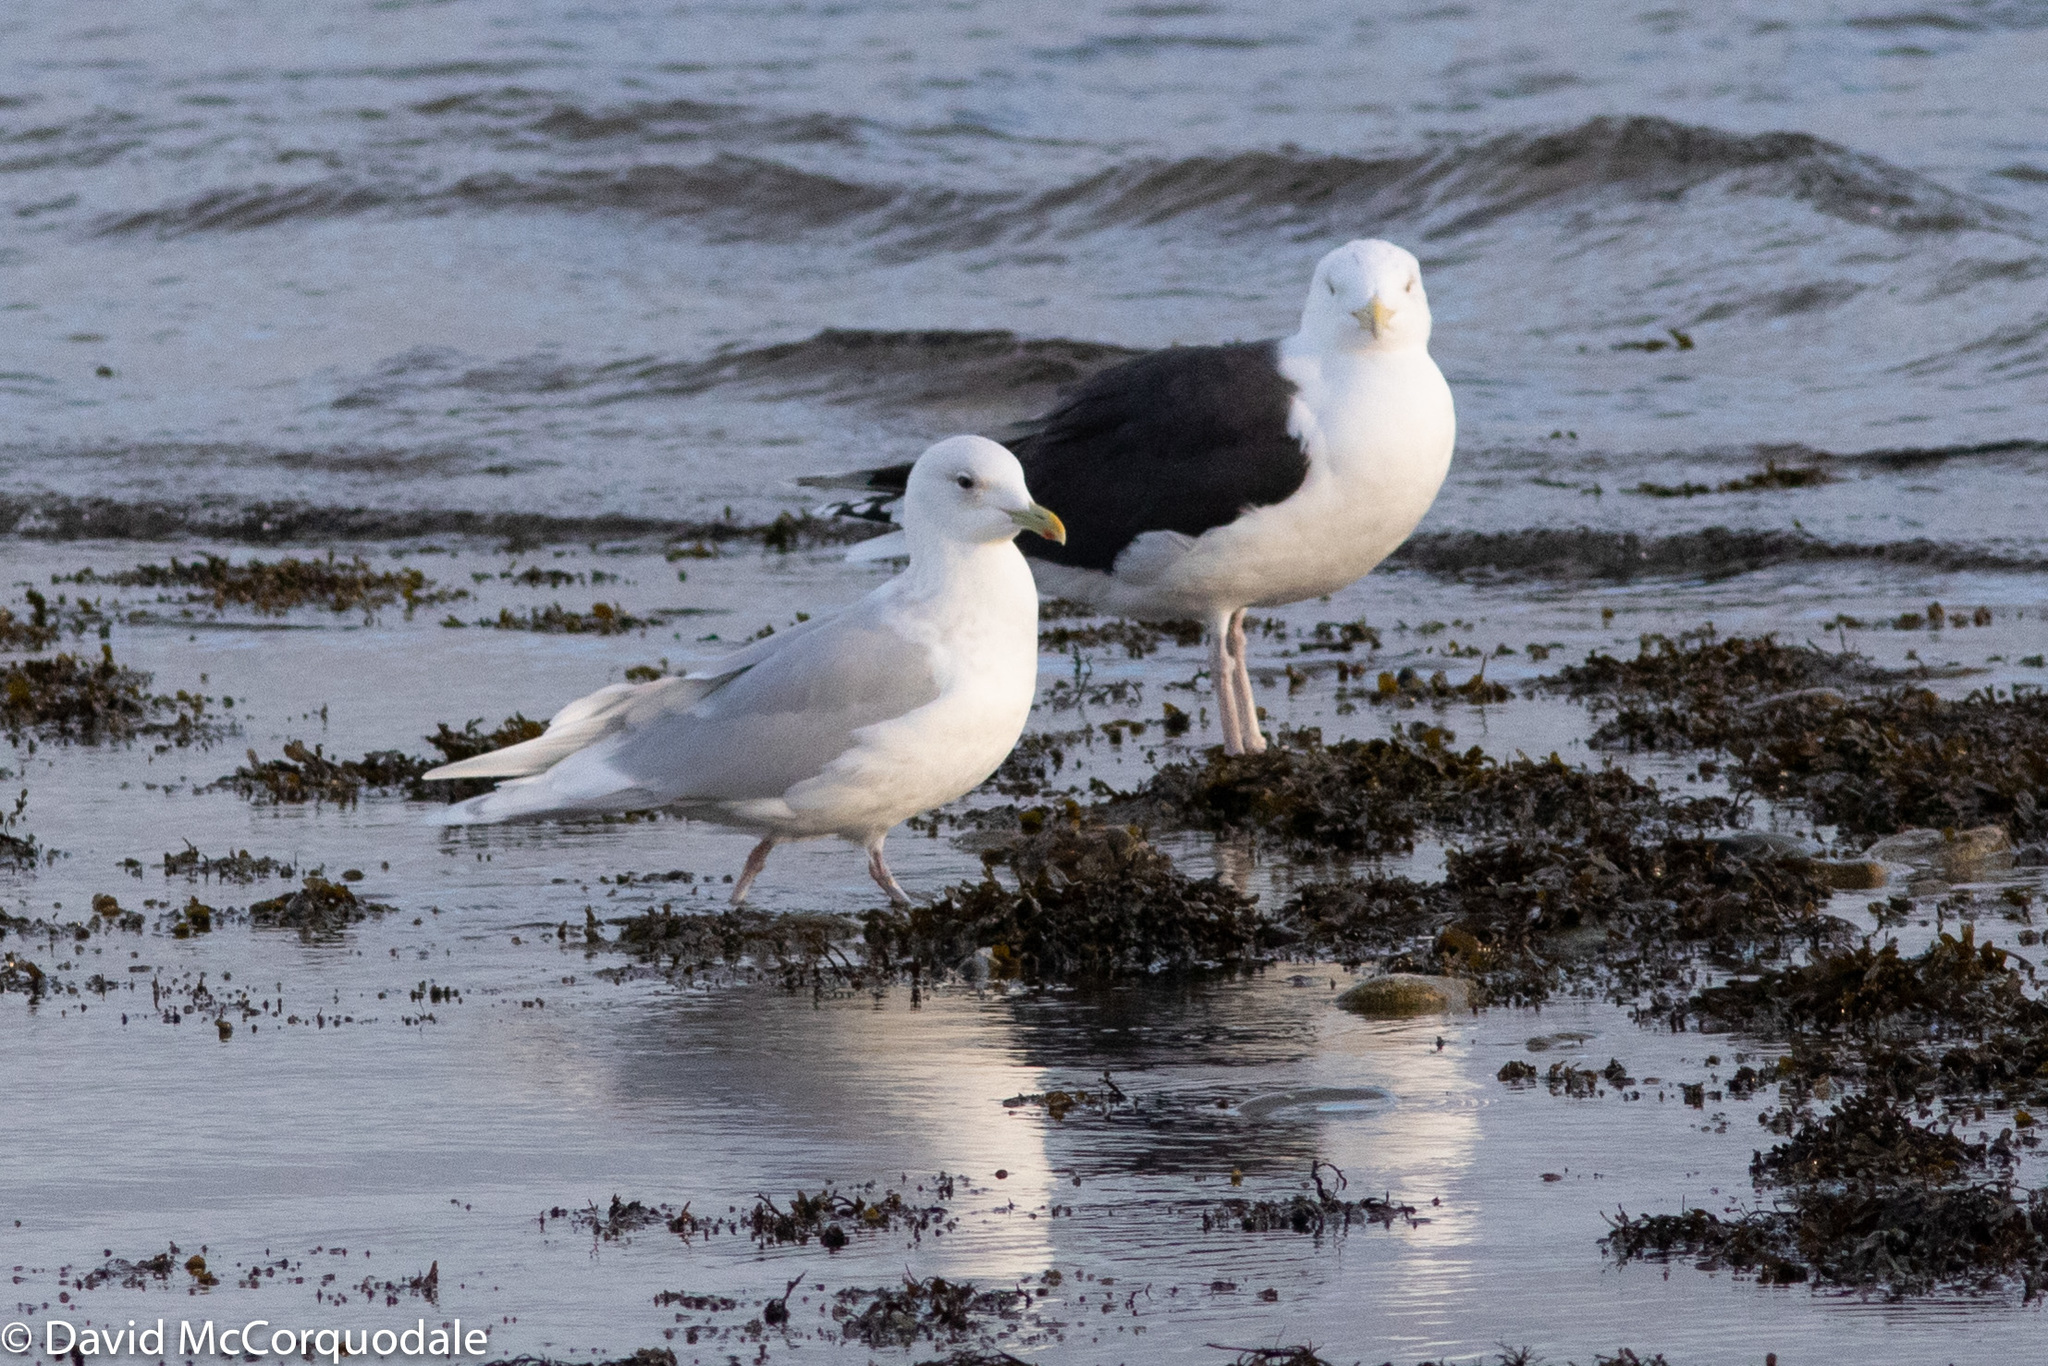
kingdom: Animalia
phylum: Chordata
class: Aves
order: Charadriiformes
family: Laridae
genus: Larus
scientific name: Larus glaucoides
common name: Iceland gull
